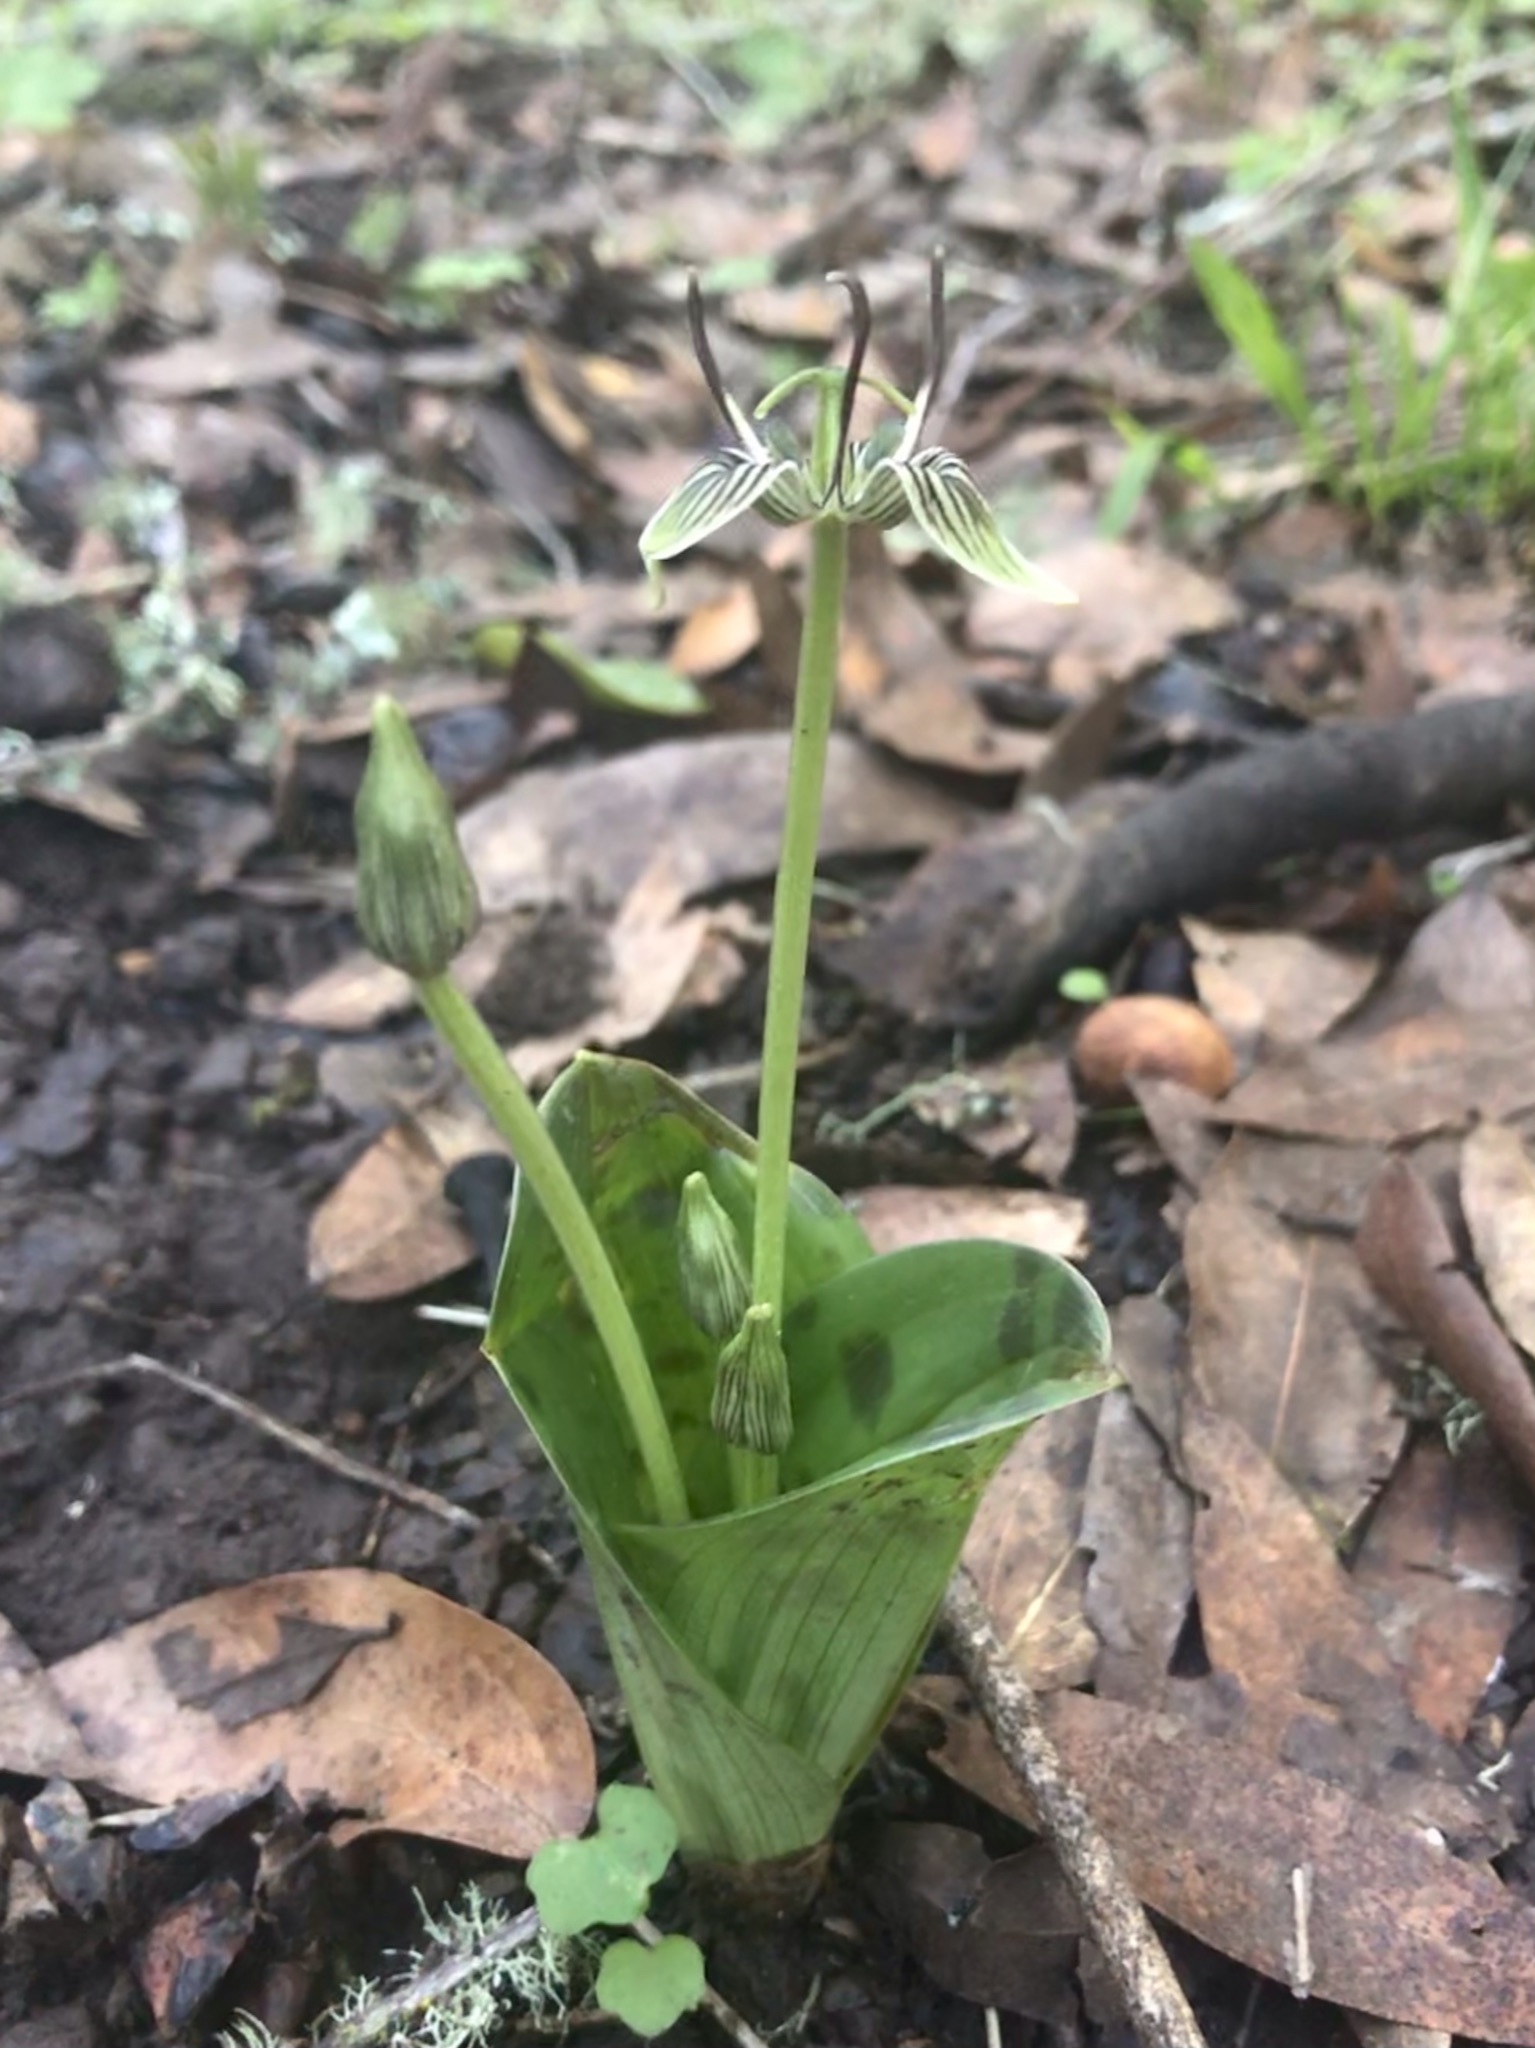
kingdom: Plantae
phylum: Tracheophyta
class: Liliopsida
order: Liliales
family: Liliaceae
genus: Scoliopus
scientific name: Scoliopus bigelovii
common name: Foetid adder's-tongue
